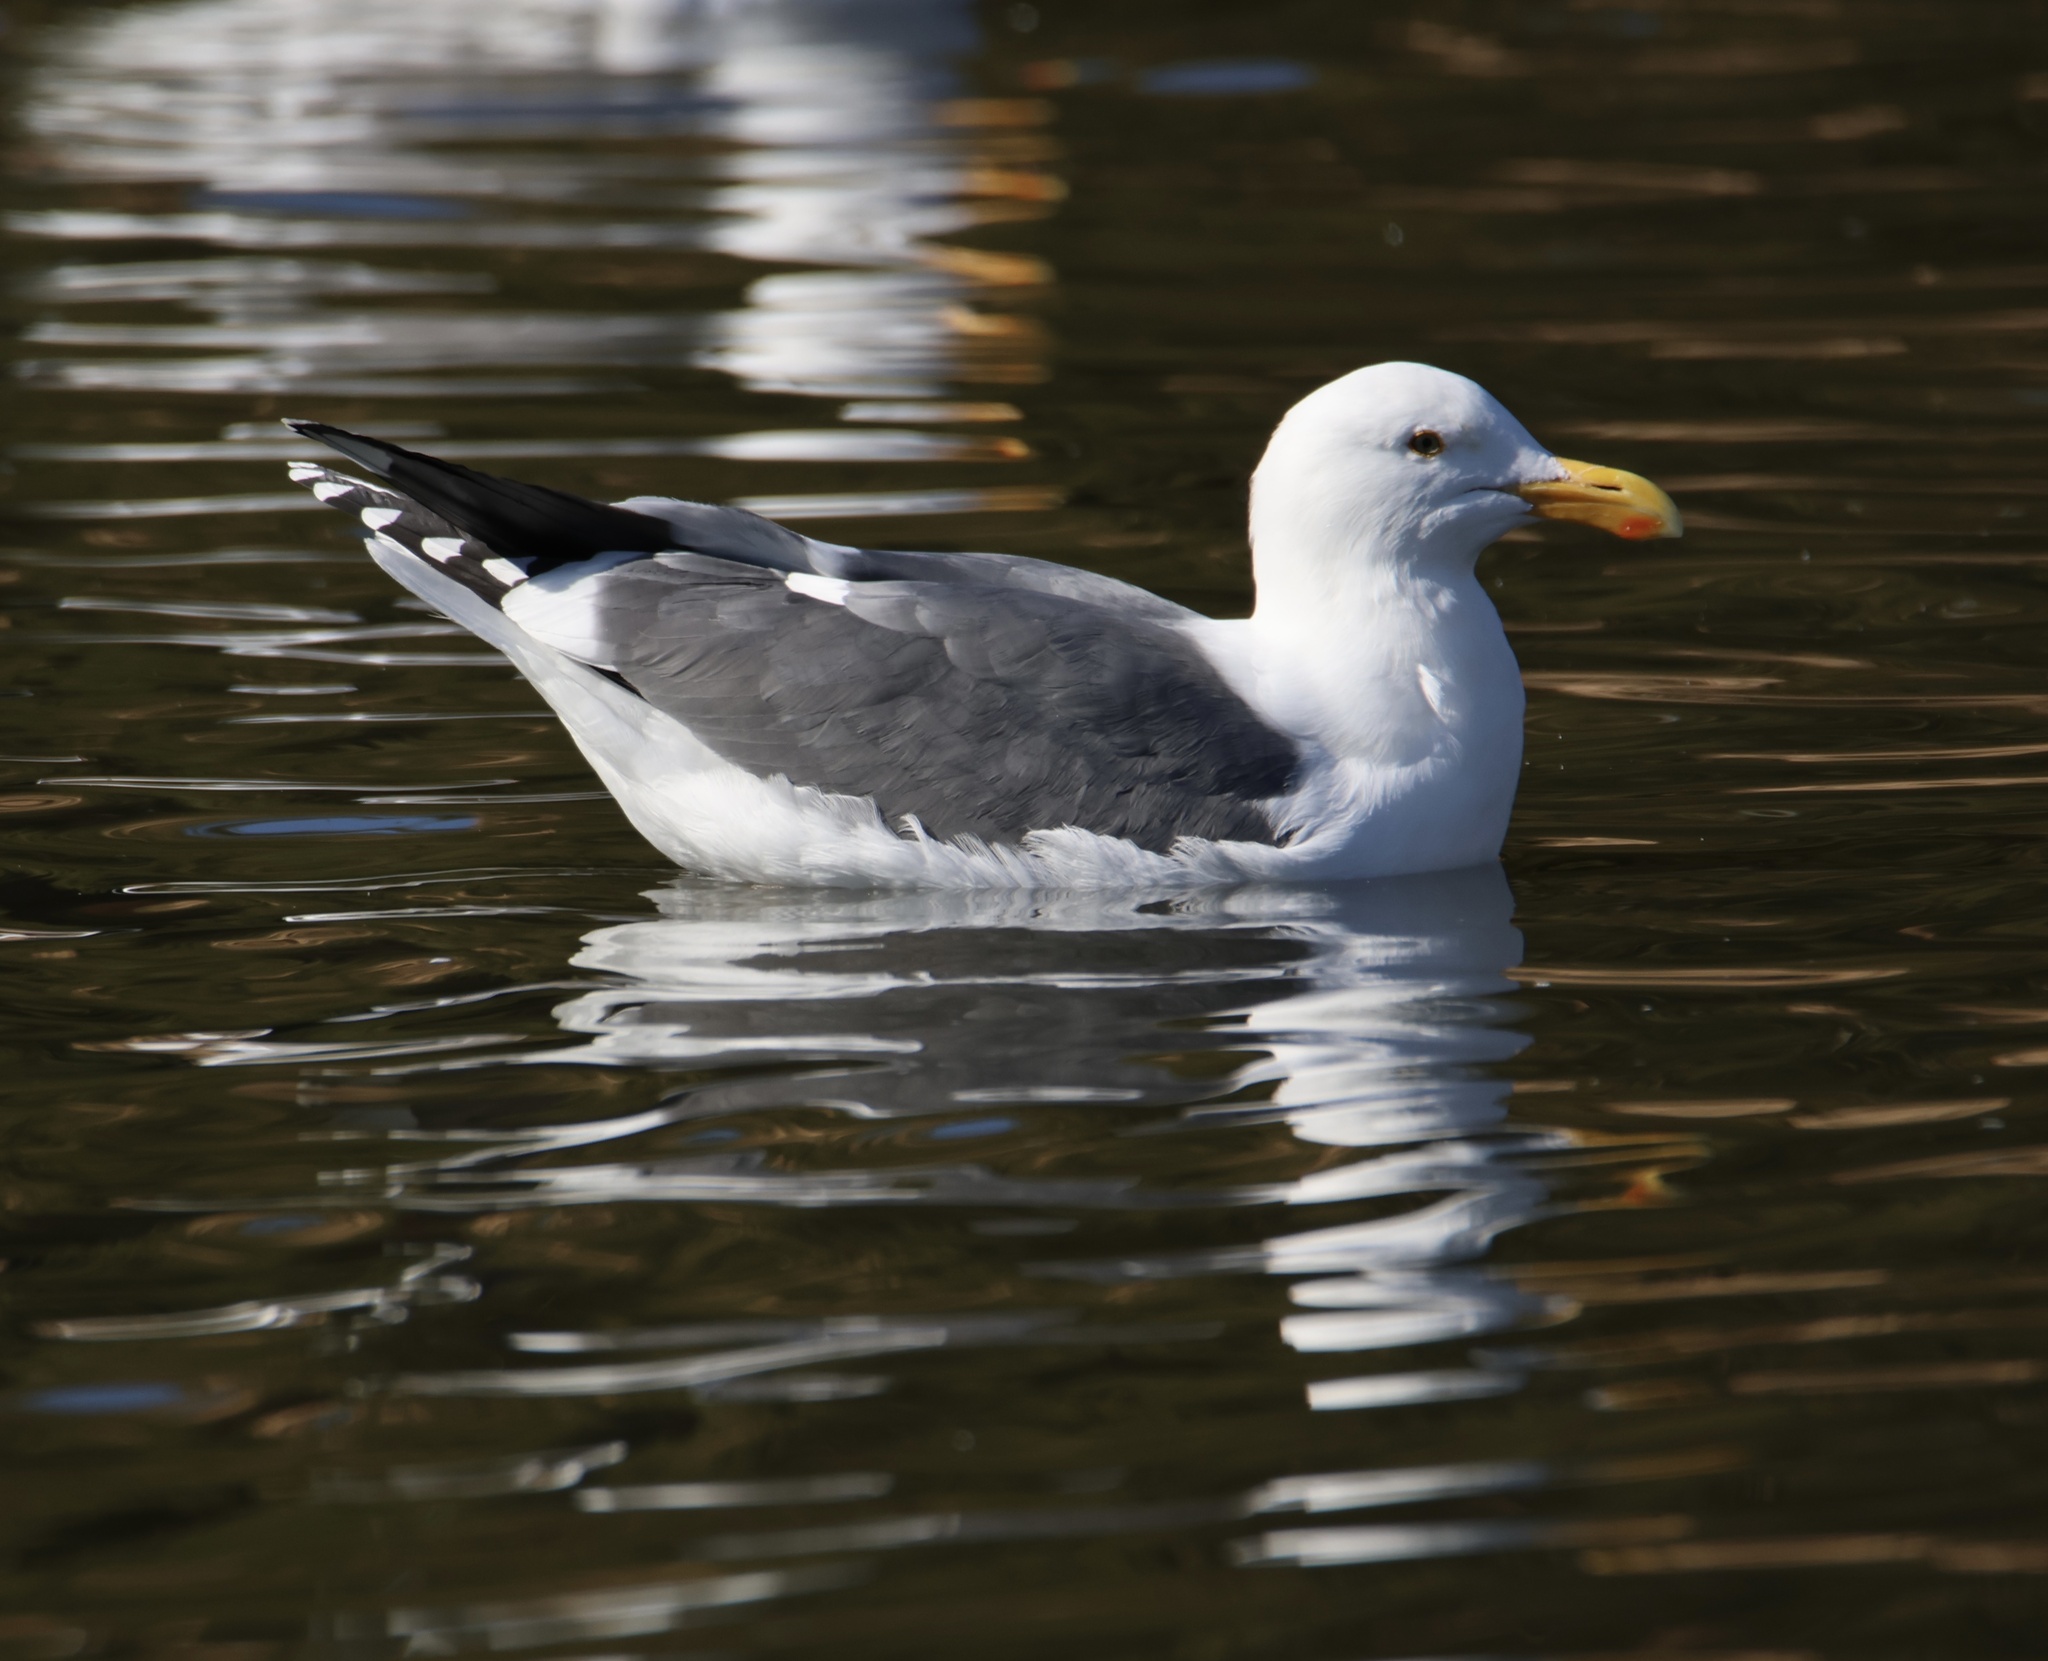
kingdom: Animalia
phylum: Chordata
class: Aves
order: Charadriiformes
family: Laridae
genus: Larus
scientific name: Larus occidentalis
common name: Western gull
